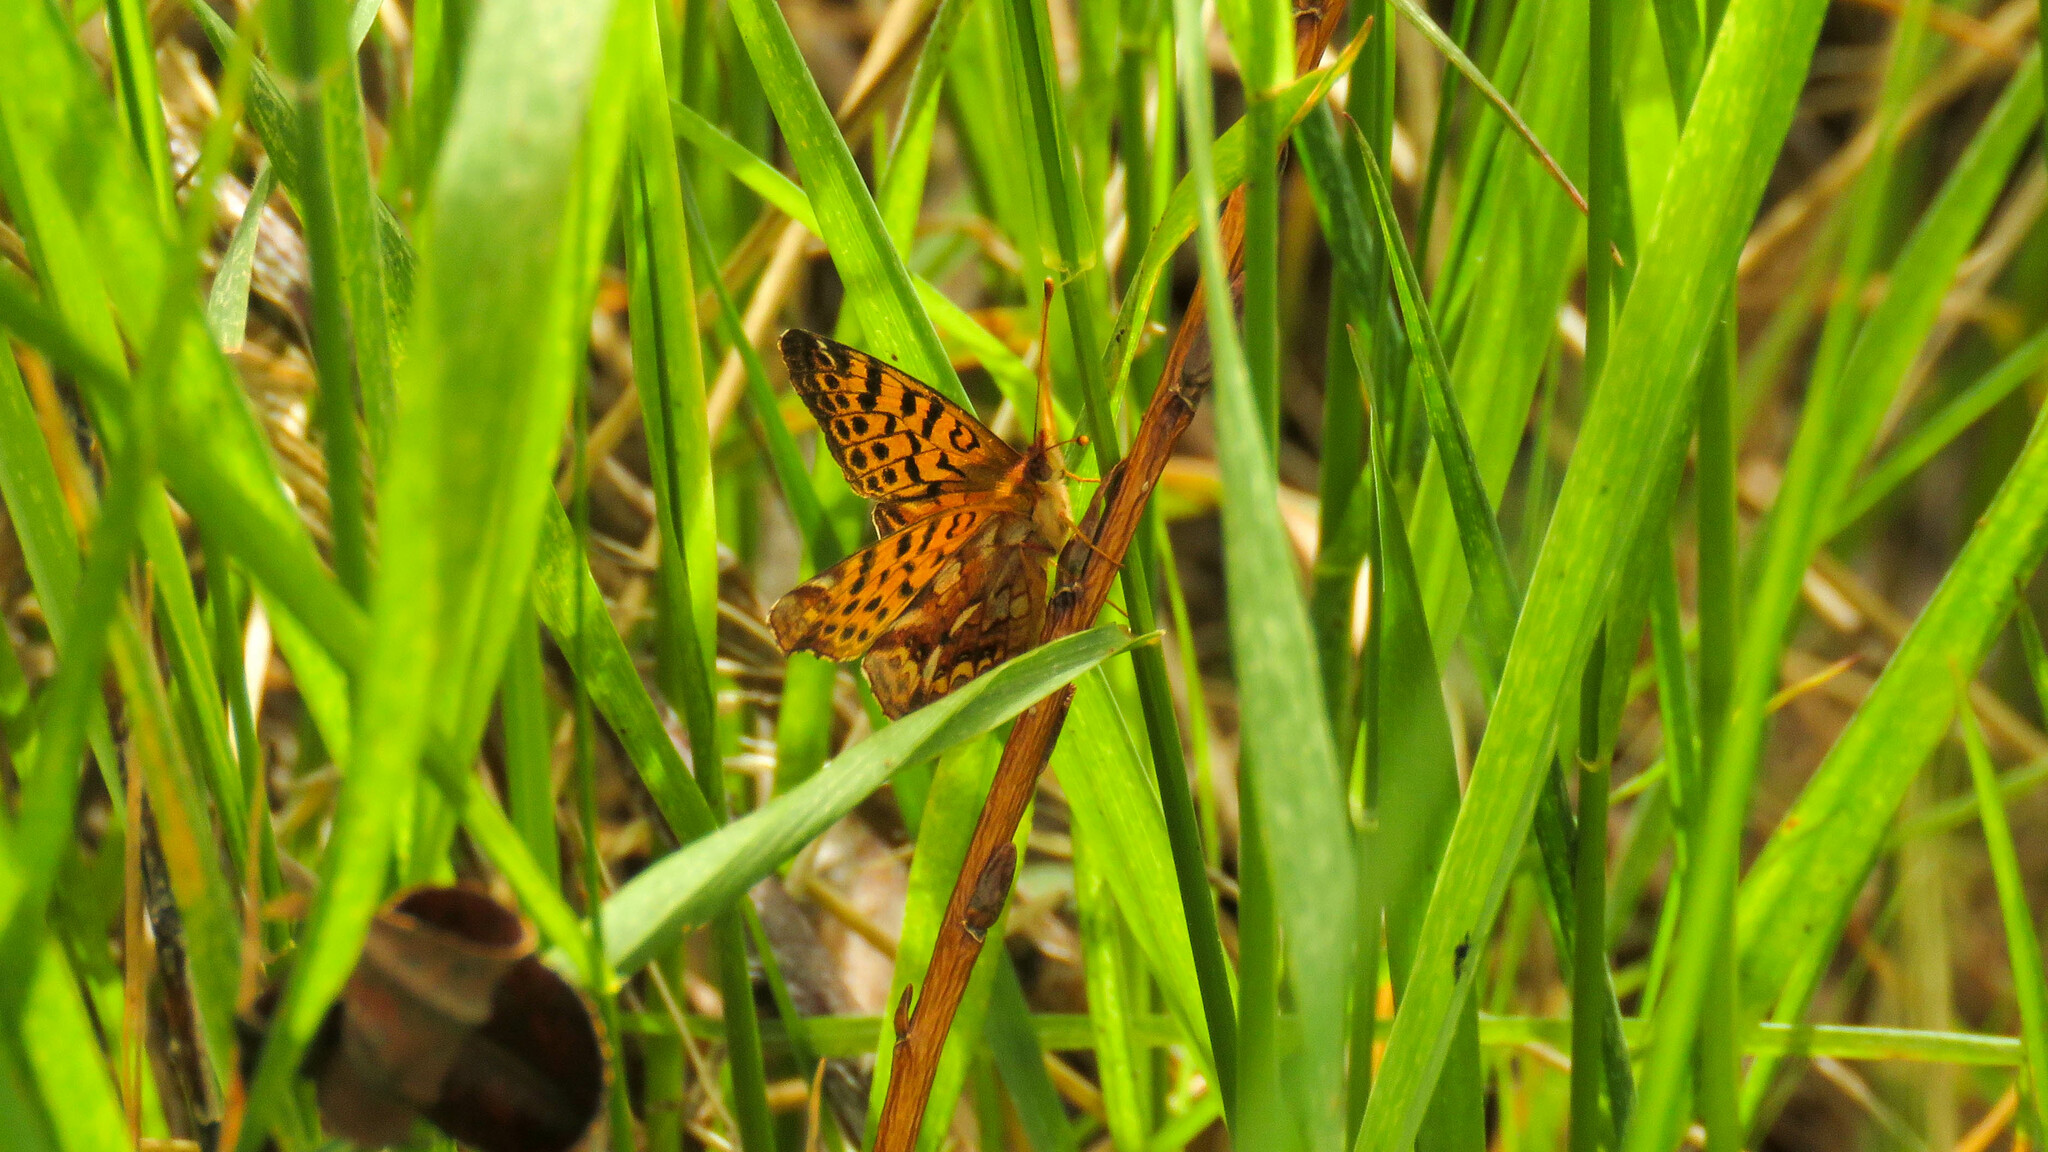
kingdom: Animalia
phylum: Arthropoda
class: Insecta
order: Lepidoptera
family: Nymphalidae
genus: Issoria
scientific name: Issoria Yramea cytheris
